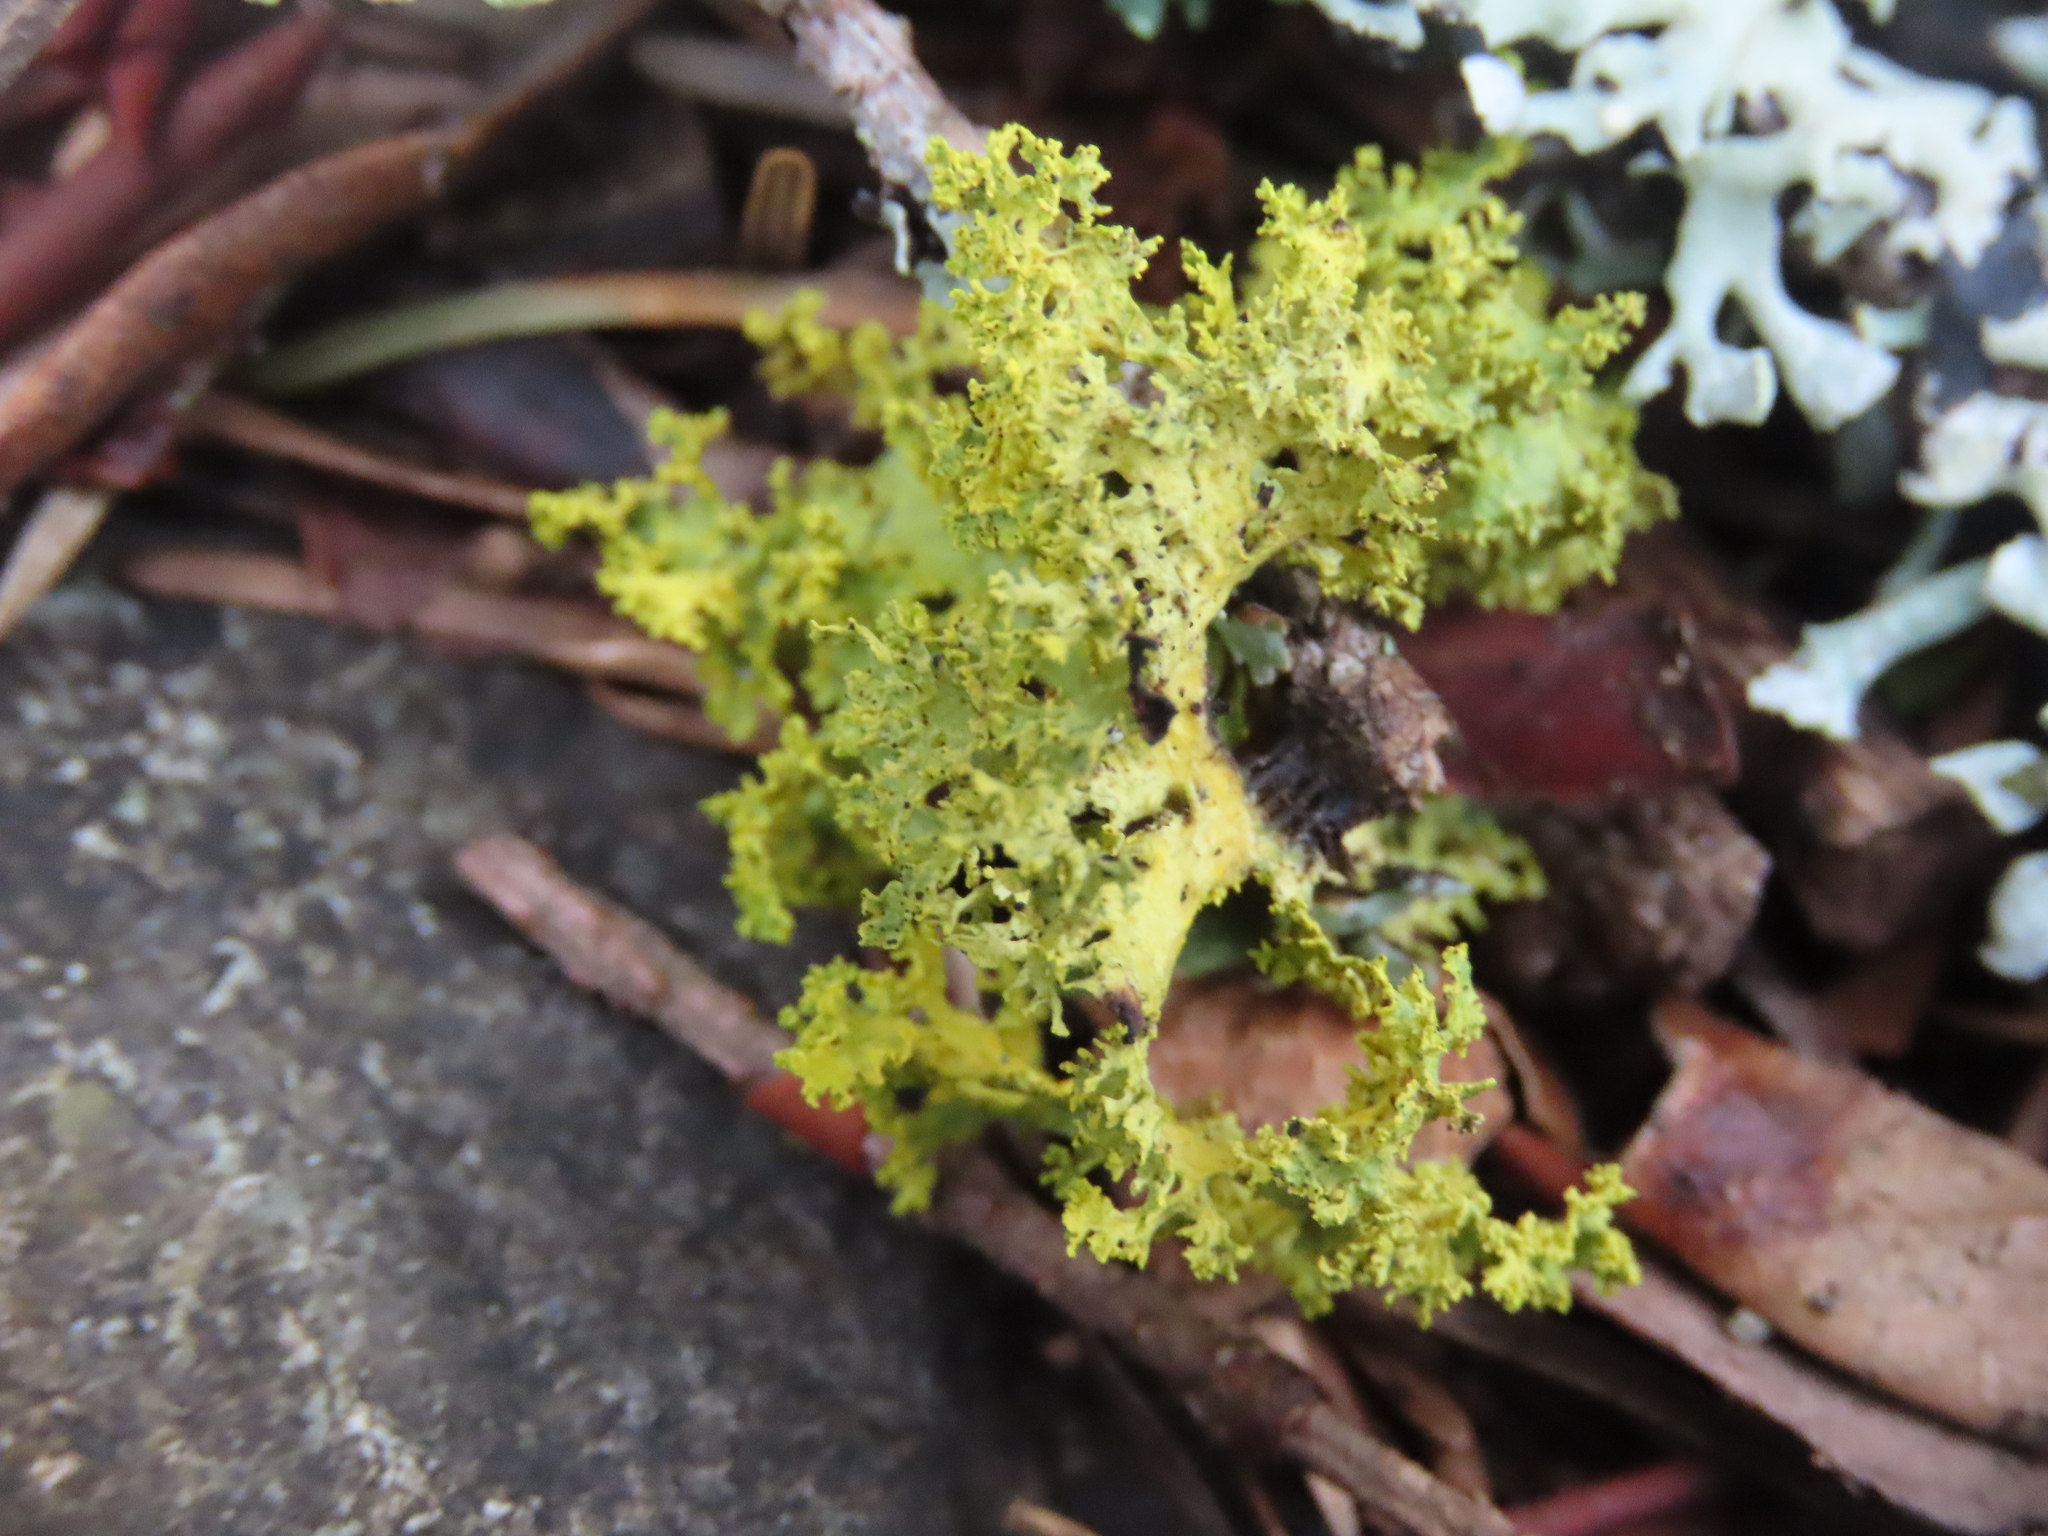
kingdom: Fungi
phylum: Ascomycota
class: Lecanoromycetes
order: Lecanorales
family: Parmeliaceae
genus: Vulpicida
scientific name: Vulpicida canadensis
